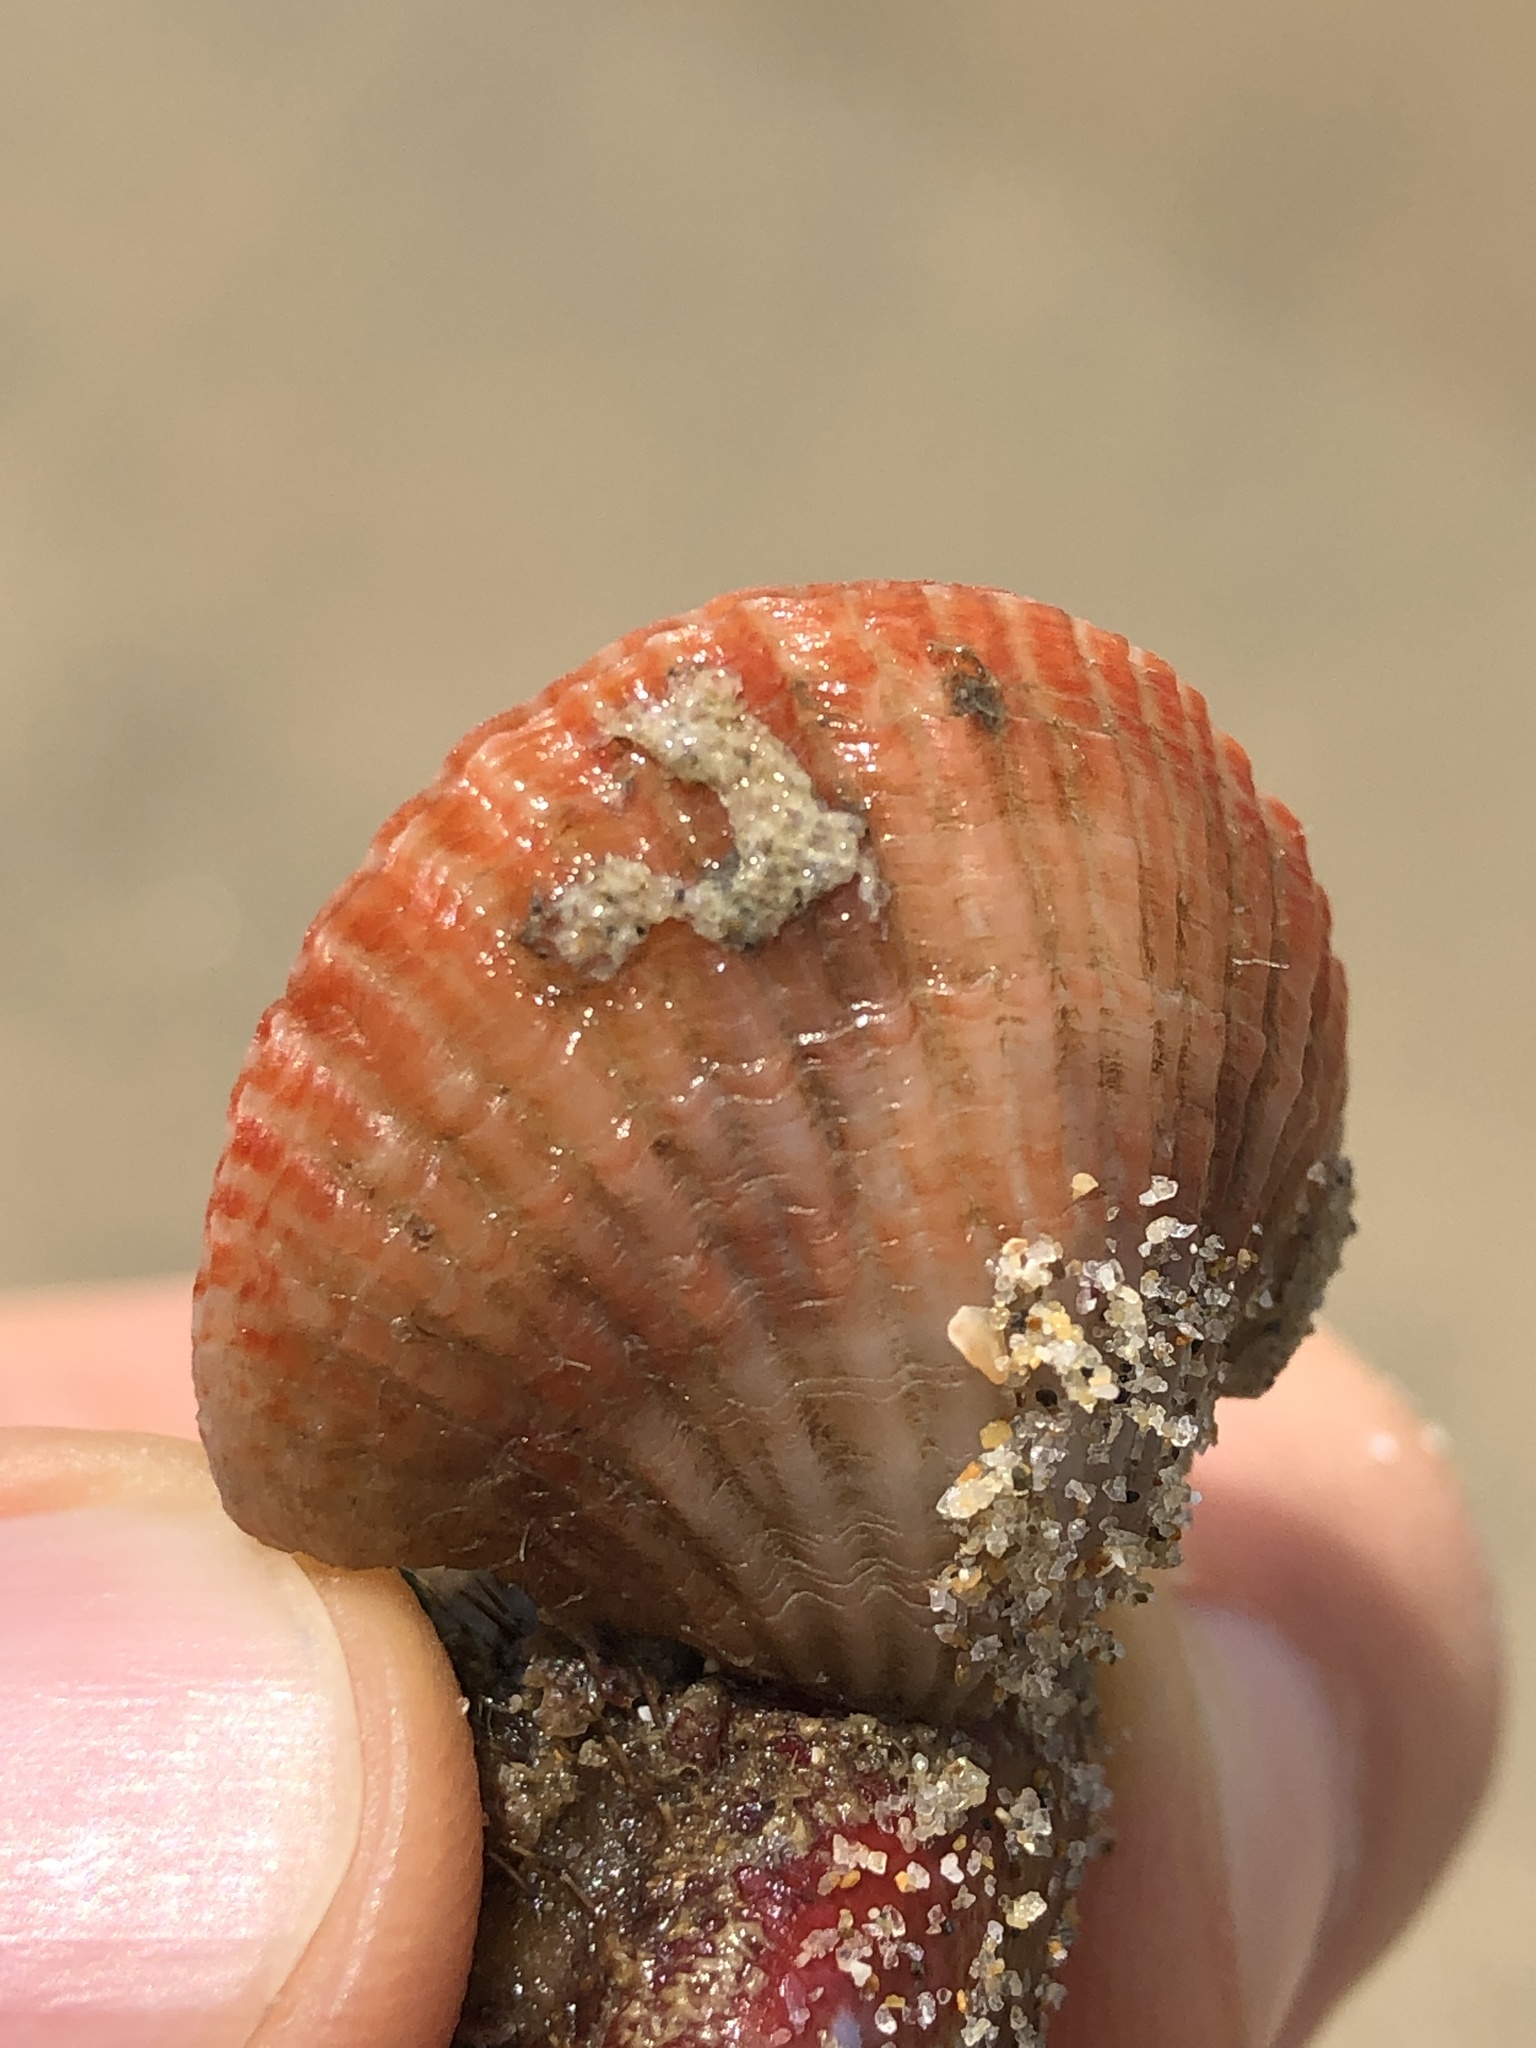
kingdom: Animalia
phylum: Brachiopoda
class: Rhynchonellata
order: Terebratulida
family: Terebrataliidae
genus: Coptothyris
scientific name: Coptothyris grayi
